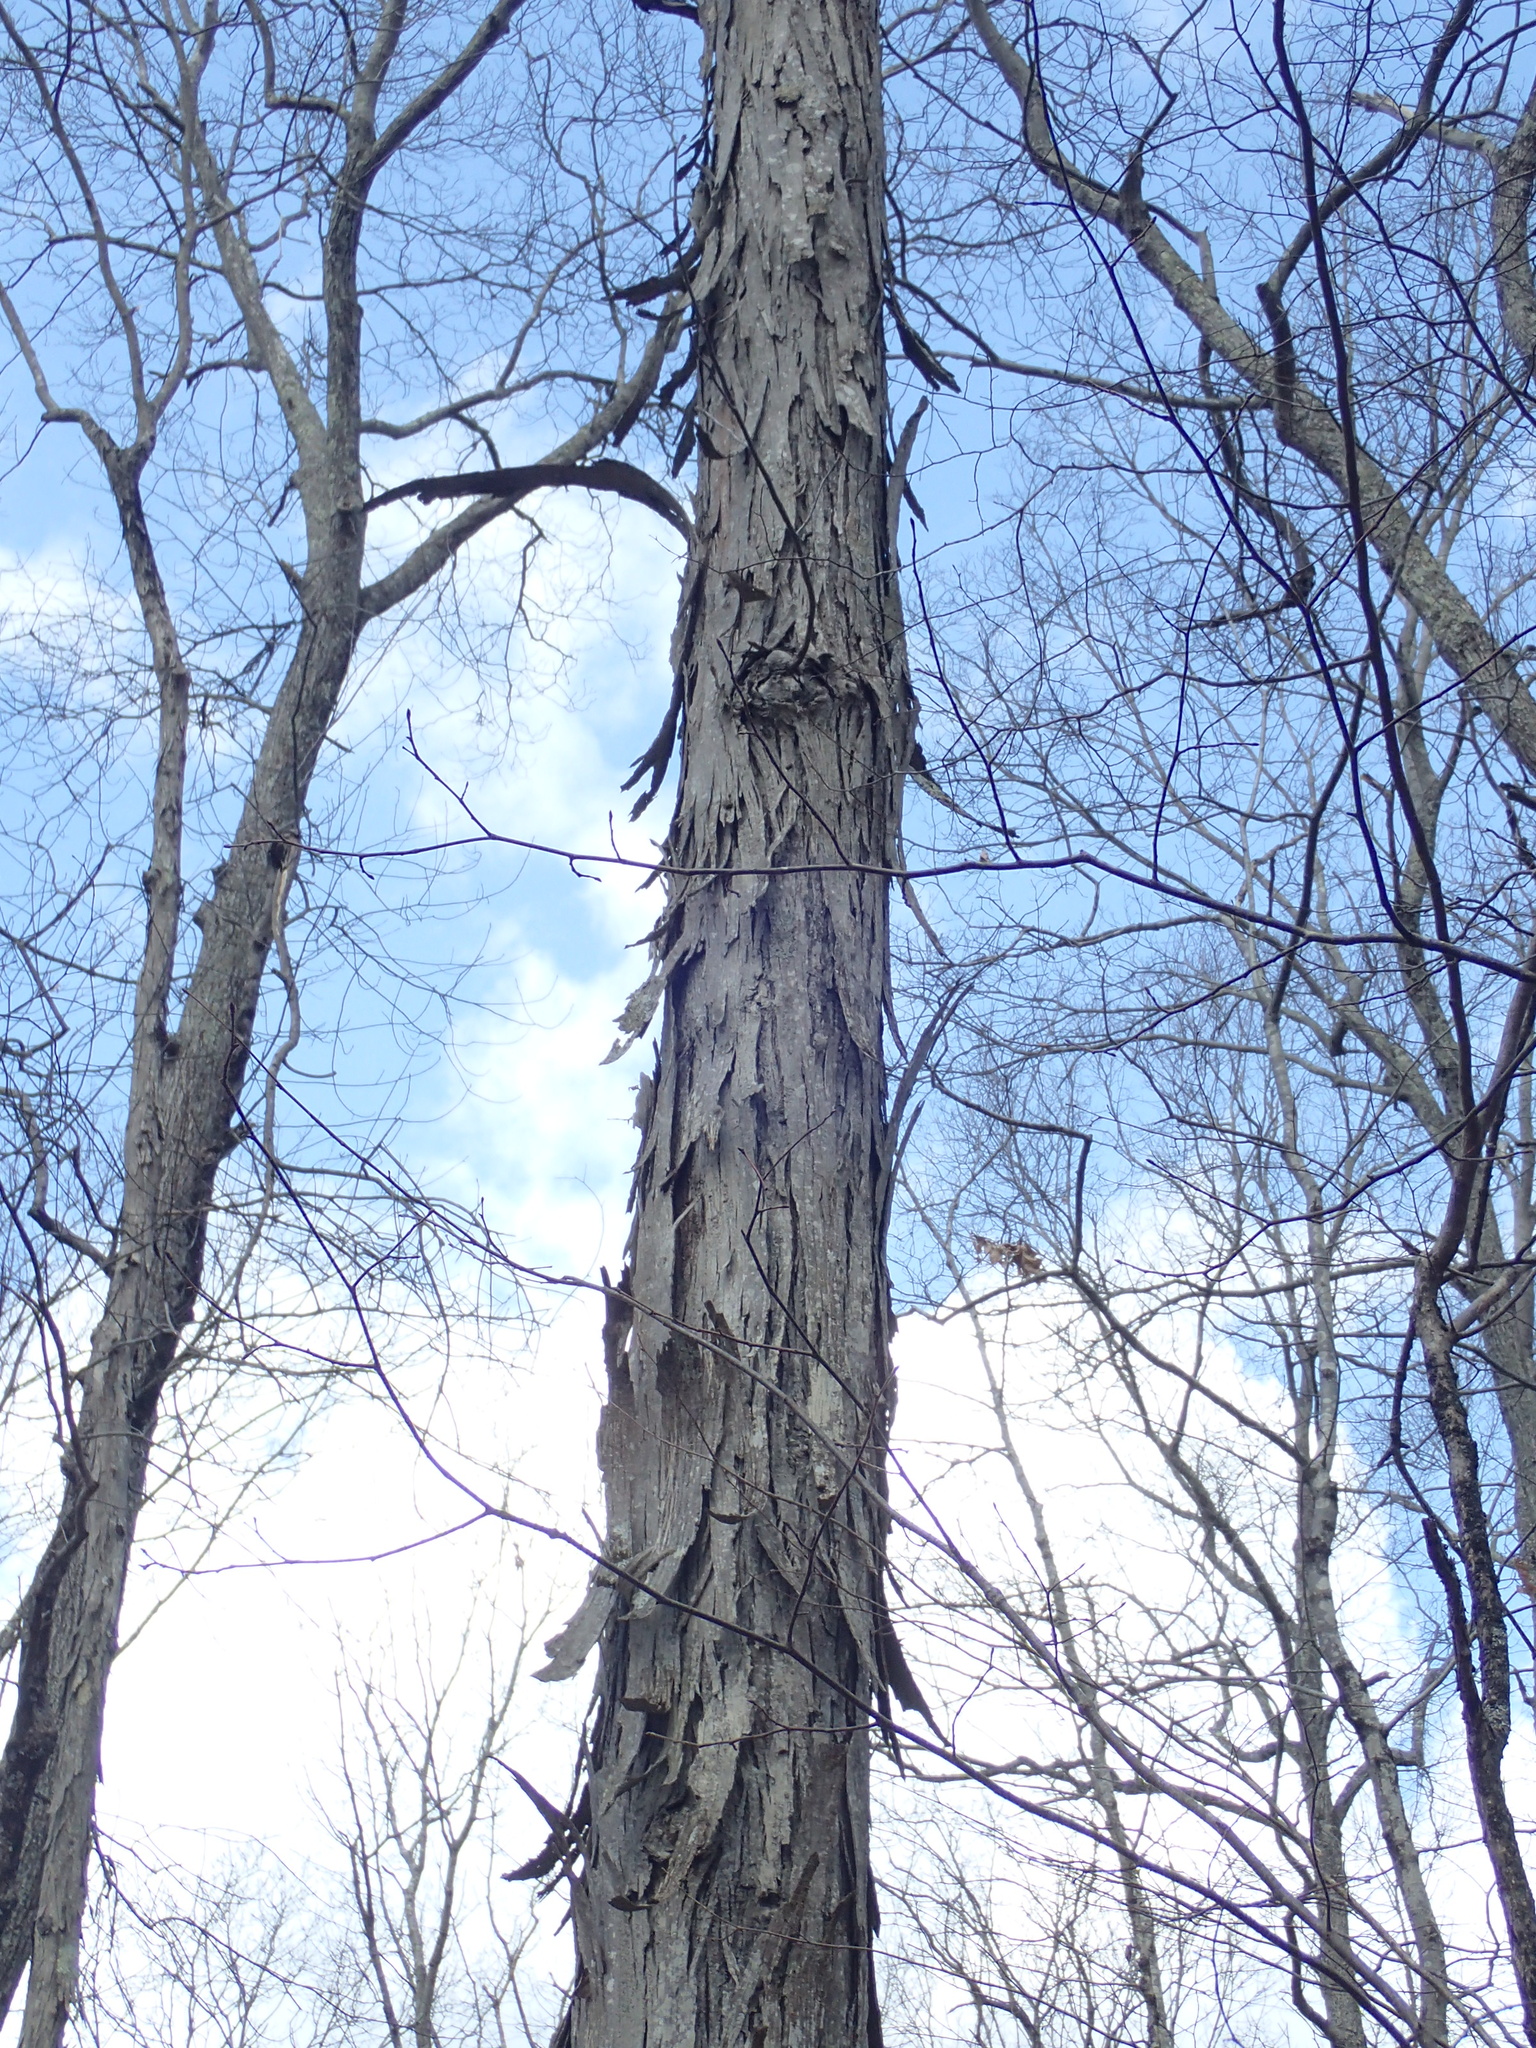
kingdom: Plantae
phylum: Tracheophyta
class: Magnoliopsida
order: Fagales
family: Juglandaceae
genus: Carya
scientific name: Carya ovata
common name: Shagbark hickory
